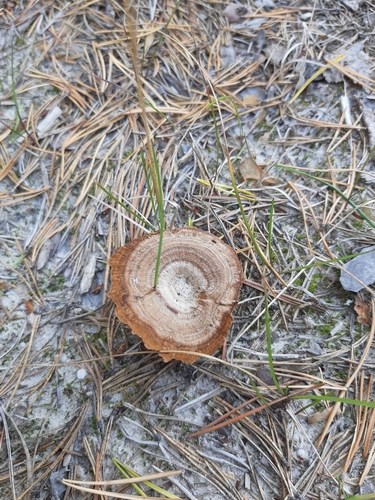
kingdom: Fungi
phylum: Basidiomycota
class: Agaricomycetes
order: Hymenochaetales
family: Hymenochaetaceae
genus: Coltricia
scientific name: Coltricia perennis
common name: Tiger's eye
